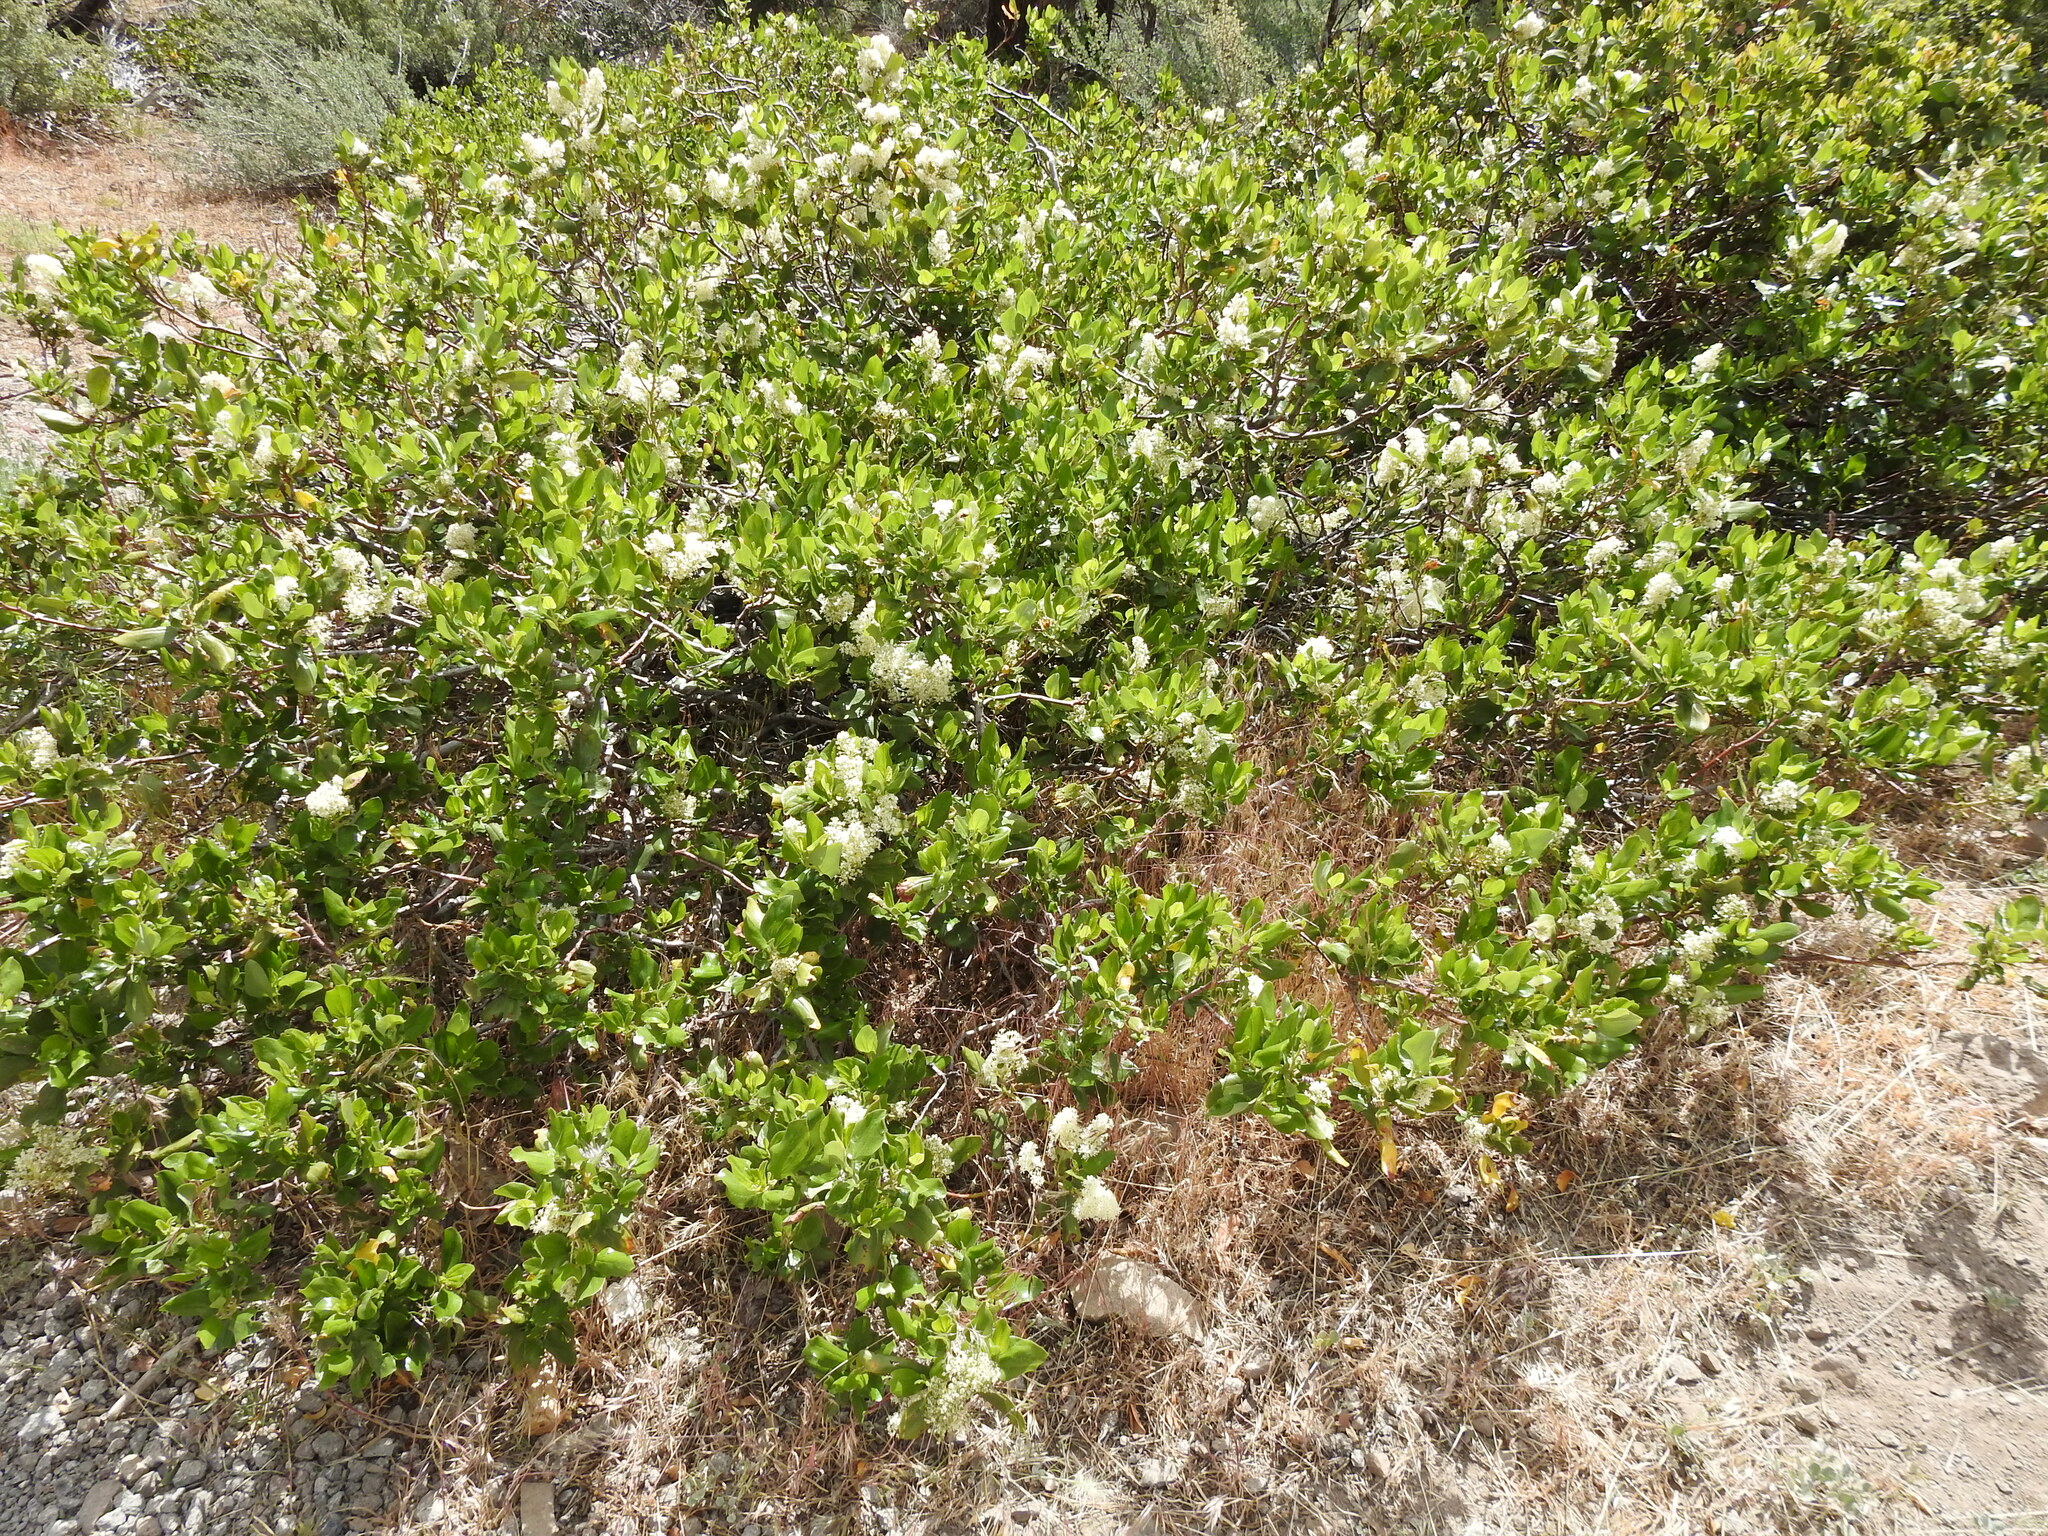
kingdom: Plantae
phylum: Tracheophyta
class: Magnoliopsida
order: Rosales
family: Rhamnaceae
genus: Ceanothus
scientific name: Ceanothus velutinus
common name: Snowbrush
